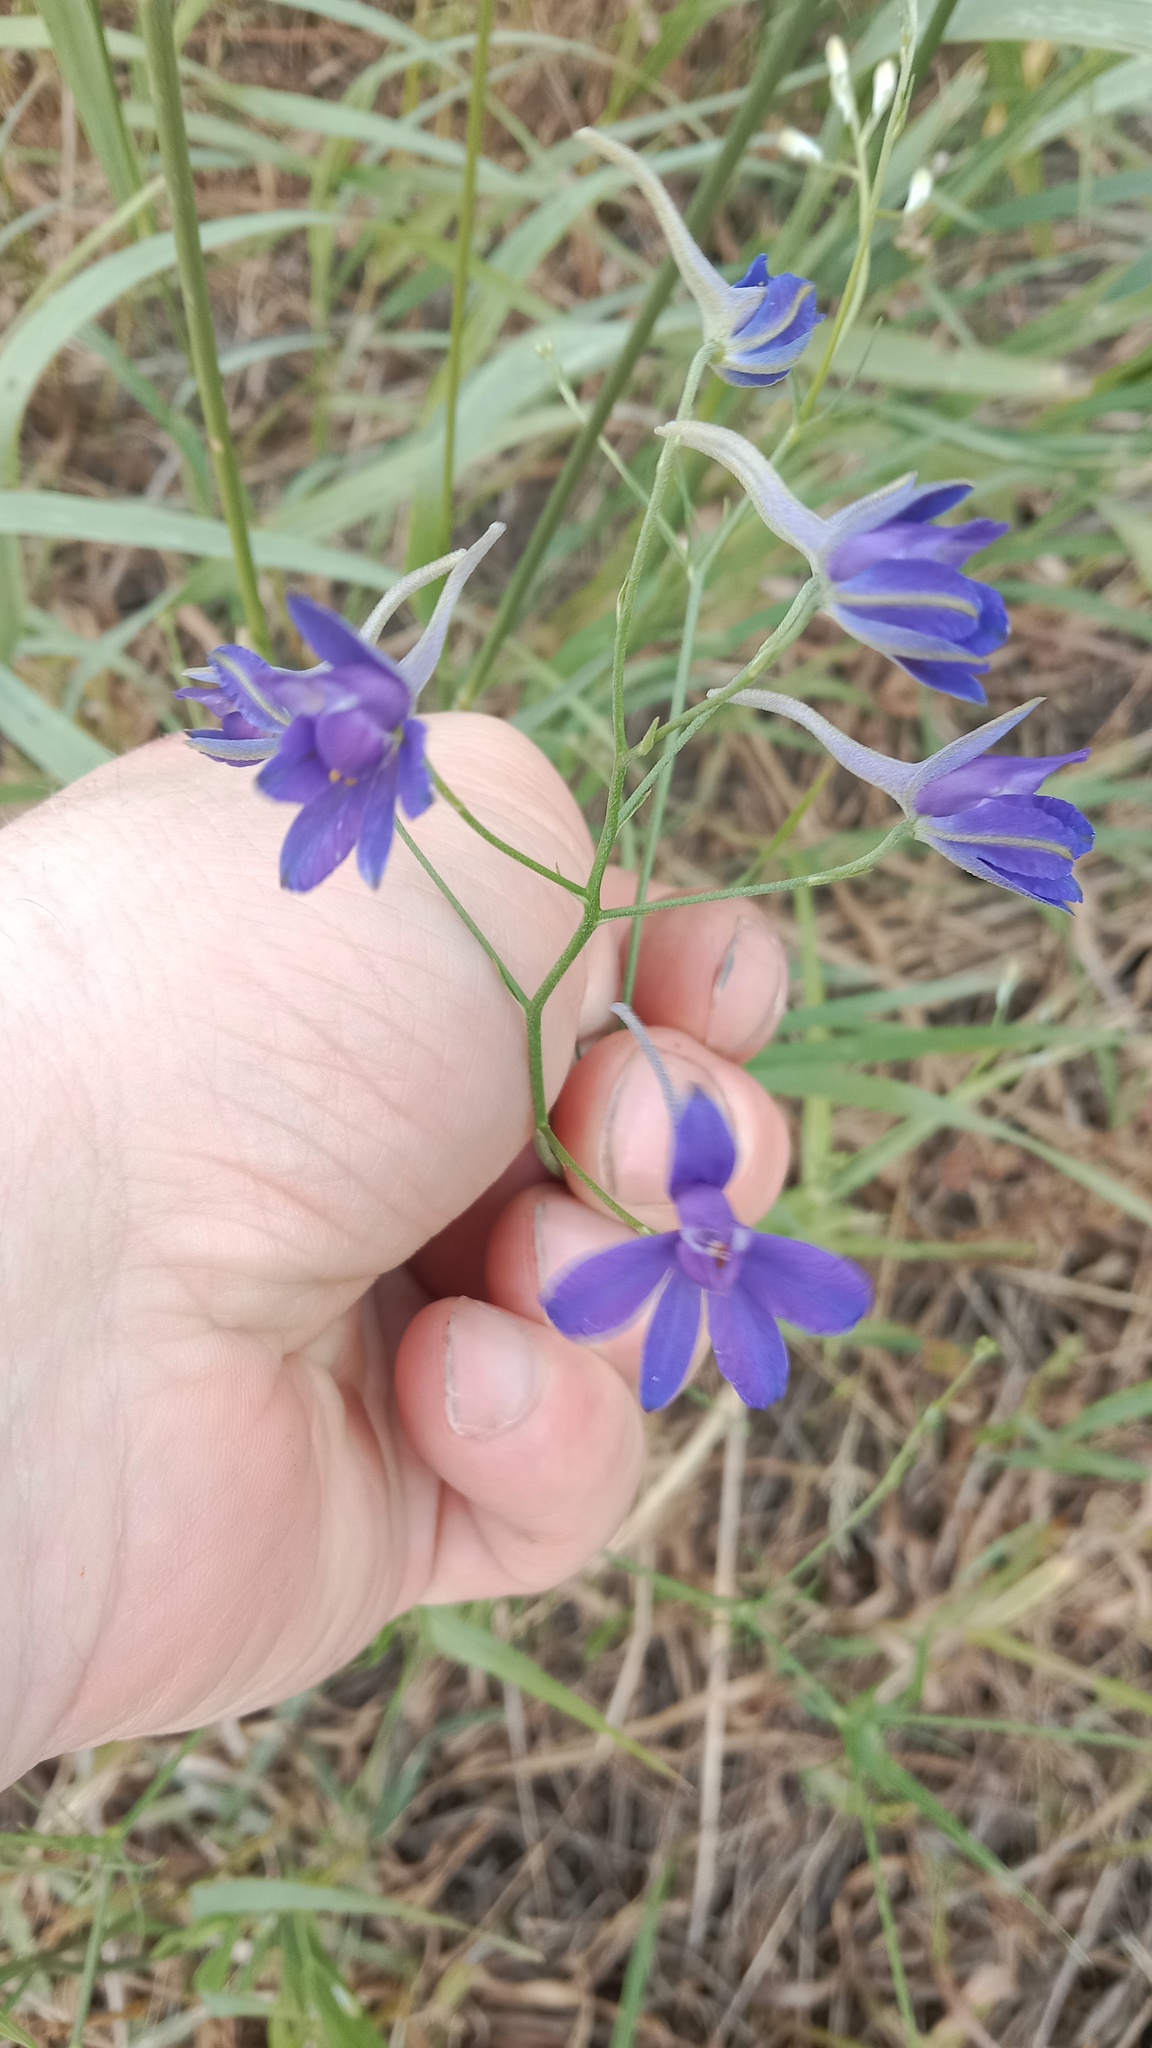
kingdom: Plantae
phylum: Tracheophyta
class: Magnoliopsida
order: Ranunculales
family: Ranunculaceae
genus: Delphinium
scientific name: Delphinium consolida
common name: Branching larkspur
